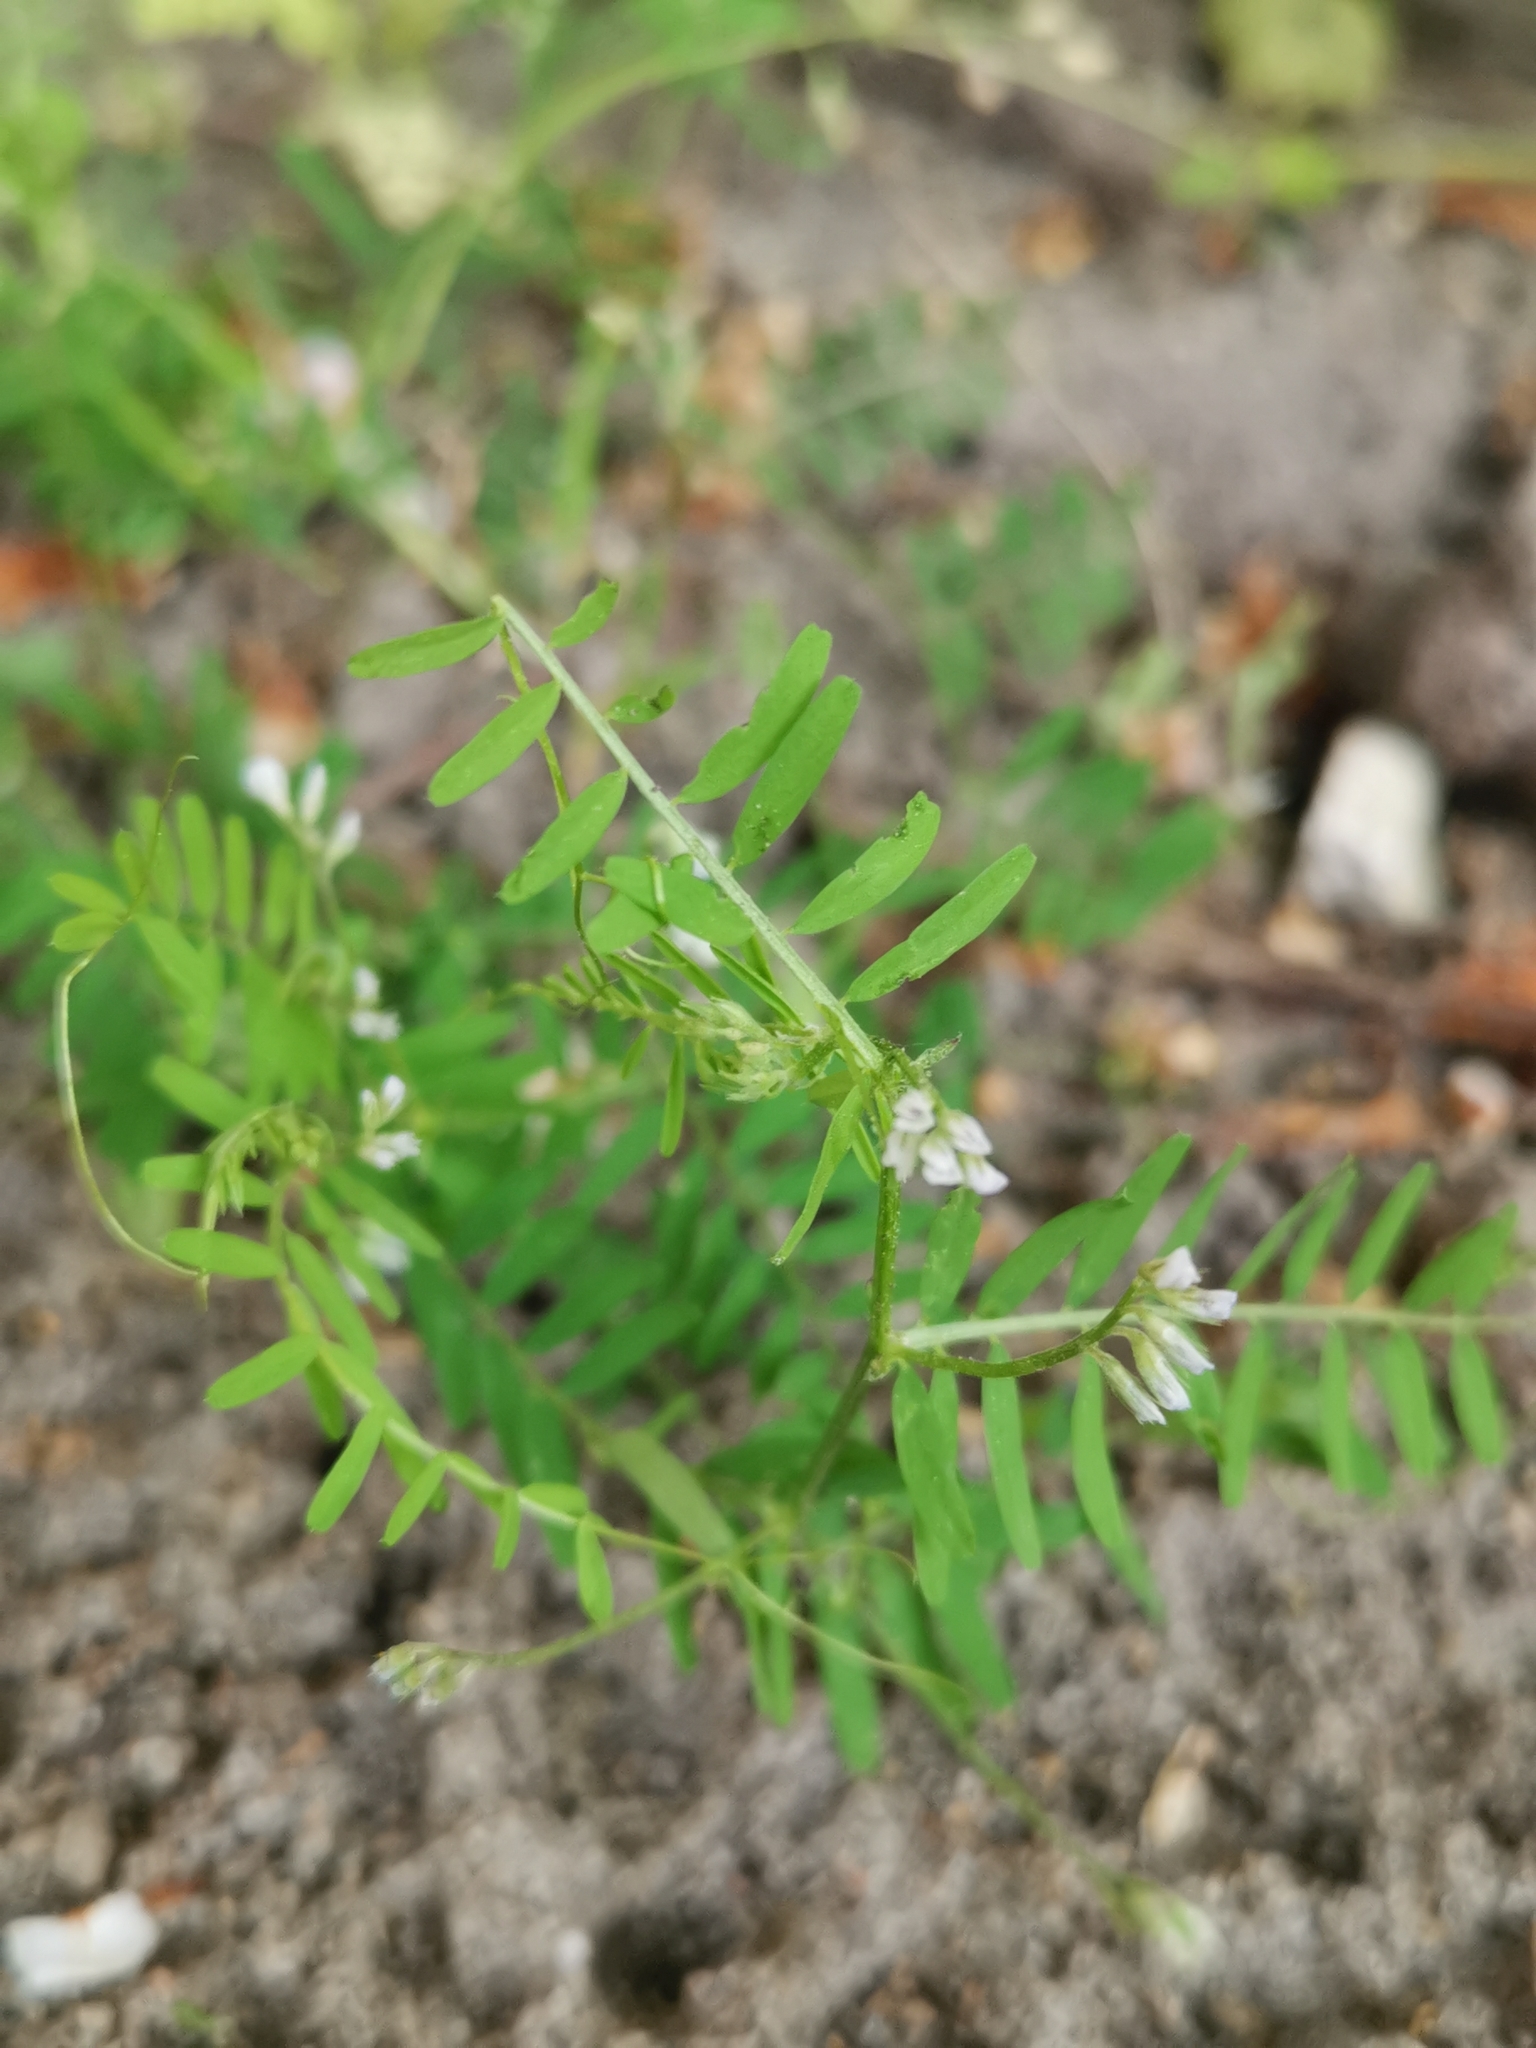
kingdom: Plantae
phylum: Tracheophyta
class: Magnoliopsida
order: Fabales
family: Fabaceae
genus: Vicia
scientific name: Vicia hirsuta
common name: Tiny vetch
